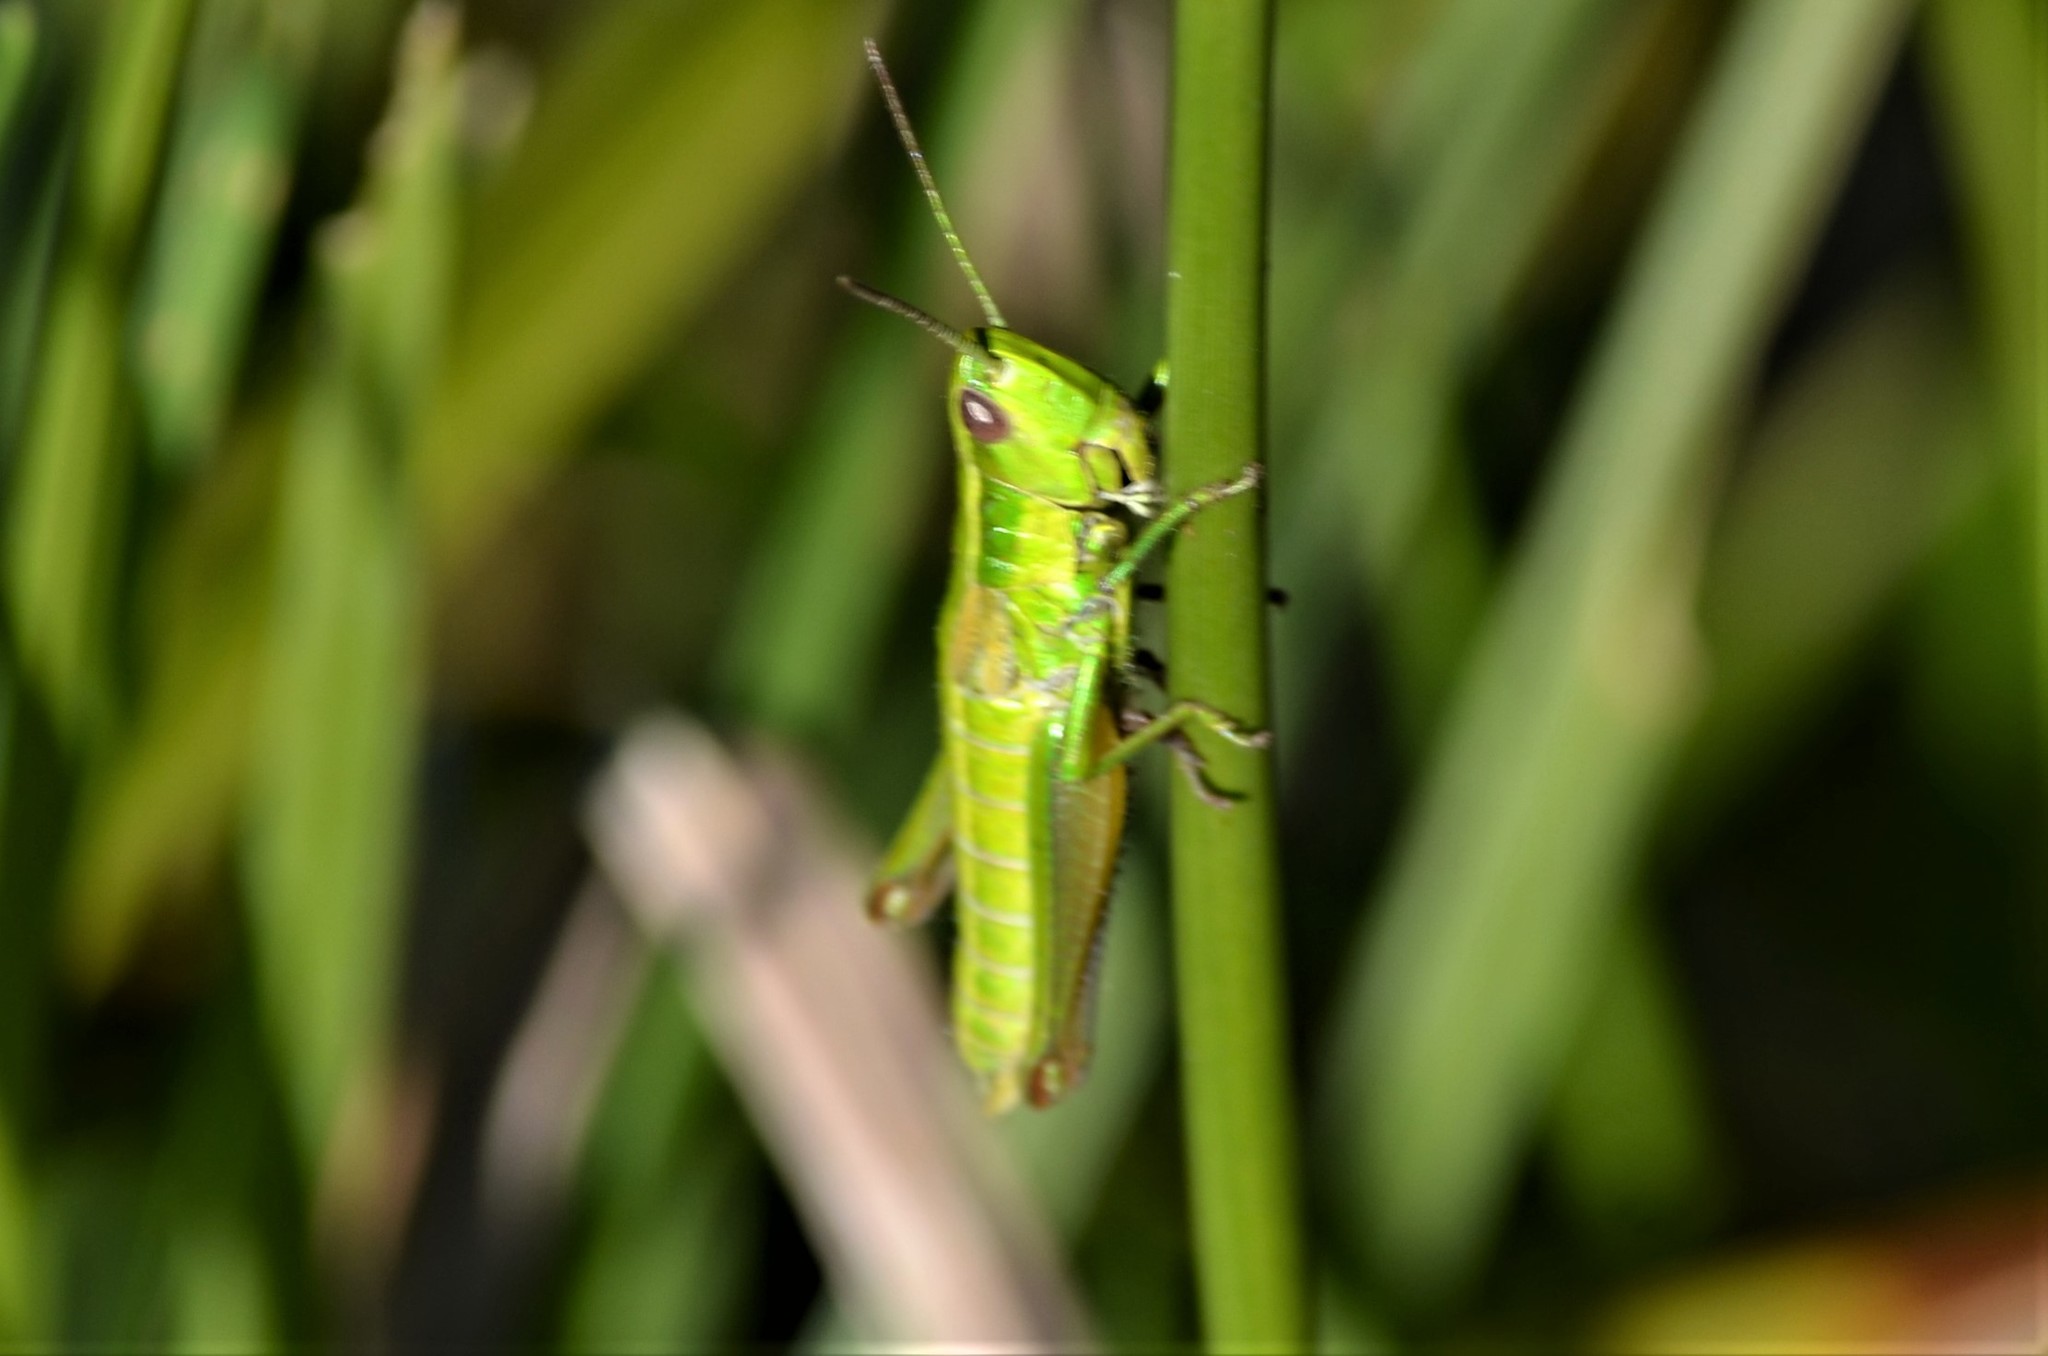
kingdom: Animalia
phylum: Arthropoda
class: Insecta
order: Orthoptera
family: Acrididae
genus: Euthystira
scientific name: Euthystira brachyptera
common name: Small gold grasshopper
